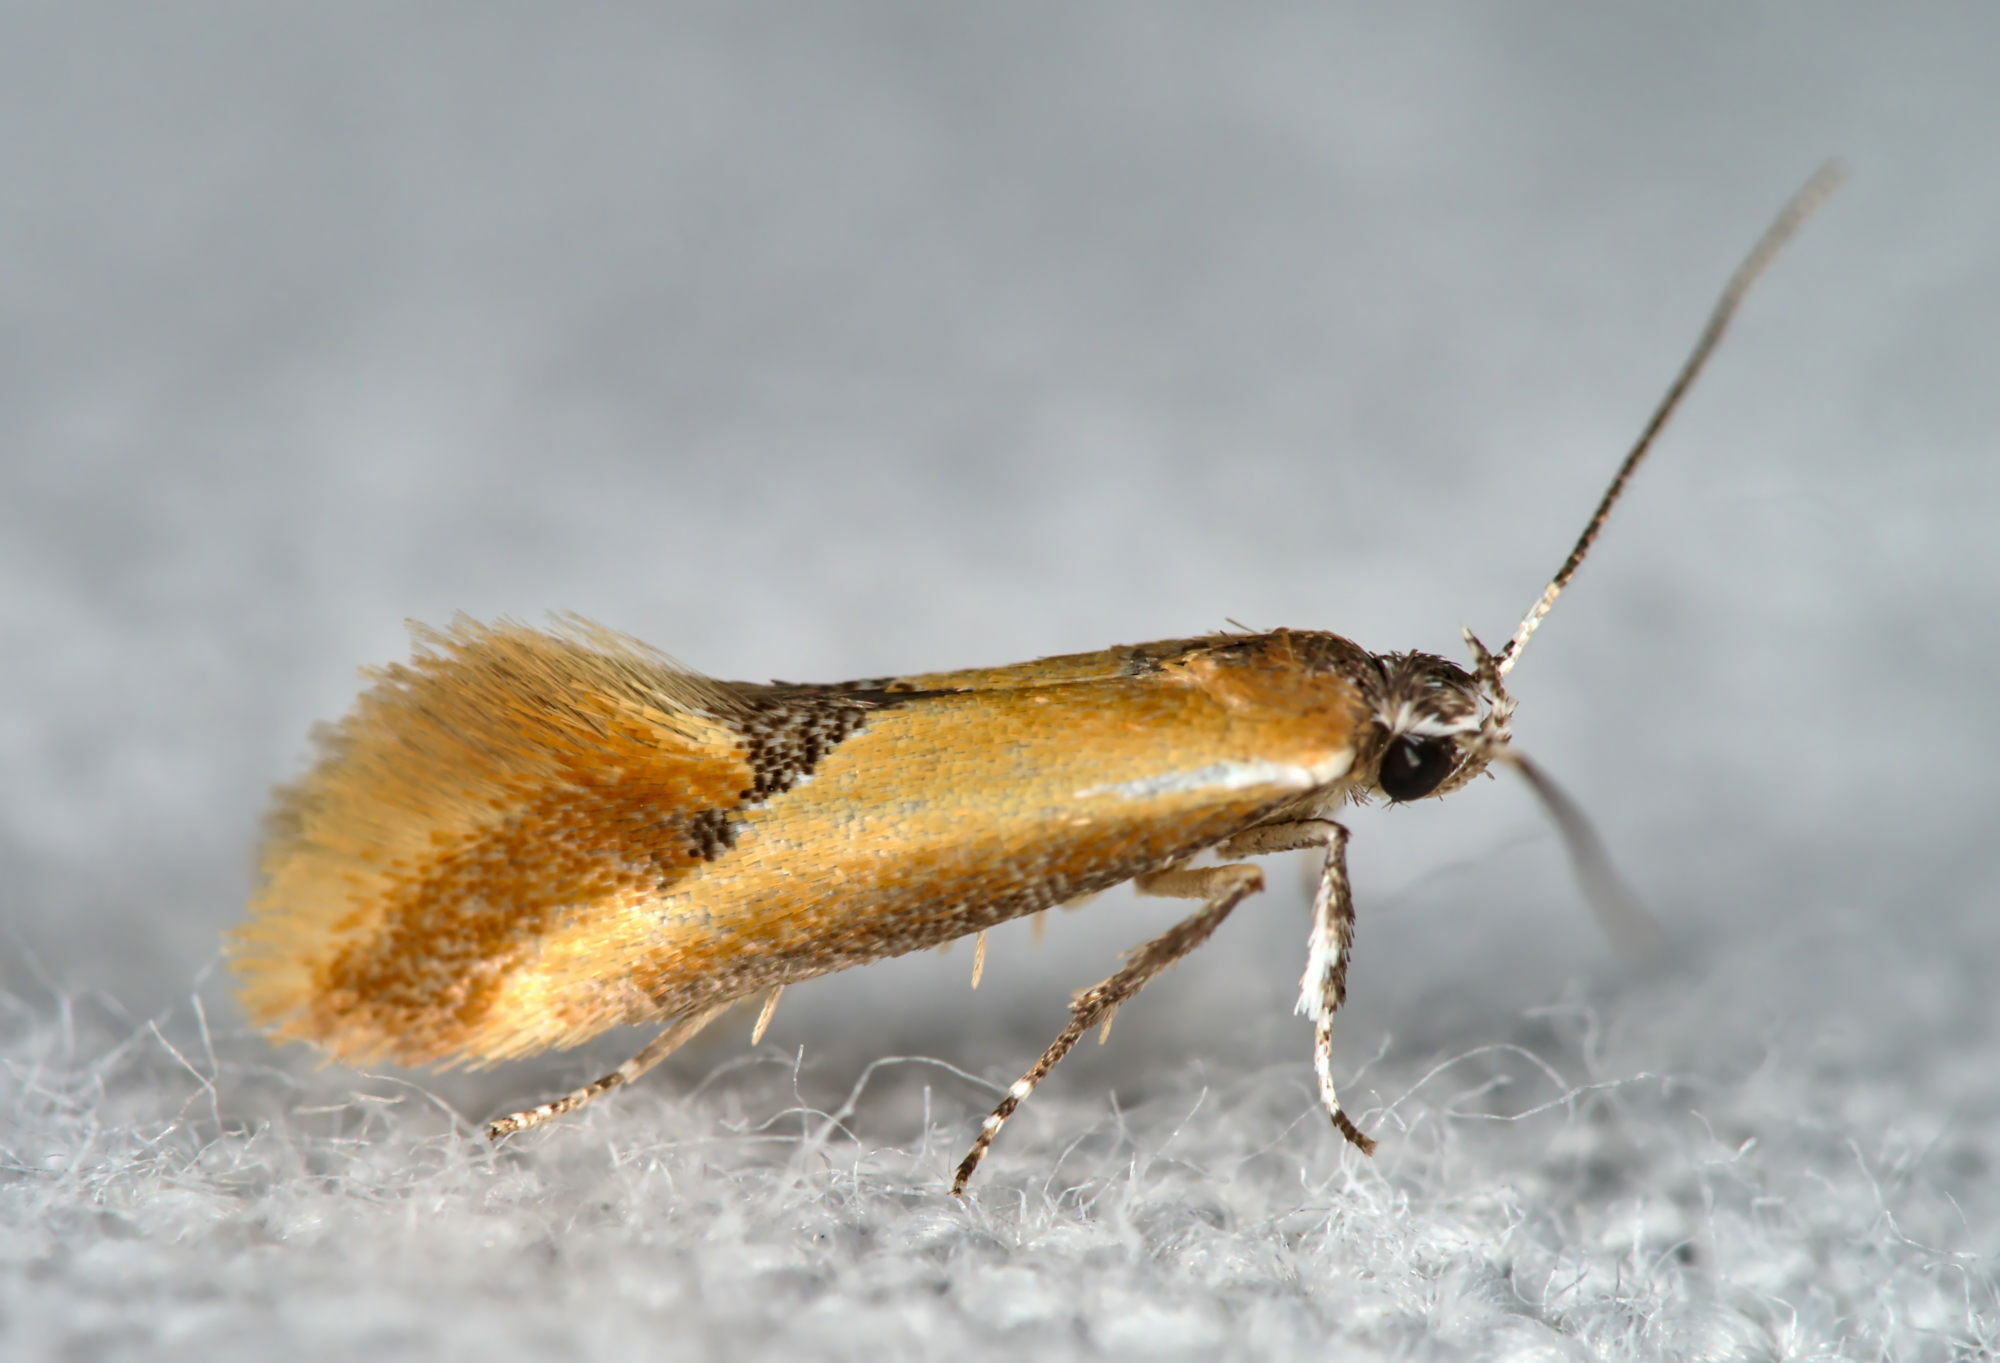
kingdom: Animalia
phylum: Arthropoda
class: Insecta
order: Lepidoptera
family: Oecophoridae
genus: Batia
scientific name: Batia lunaris
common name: Moth
